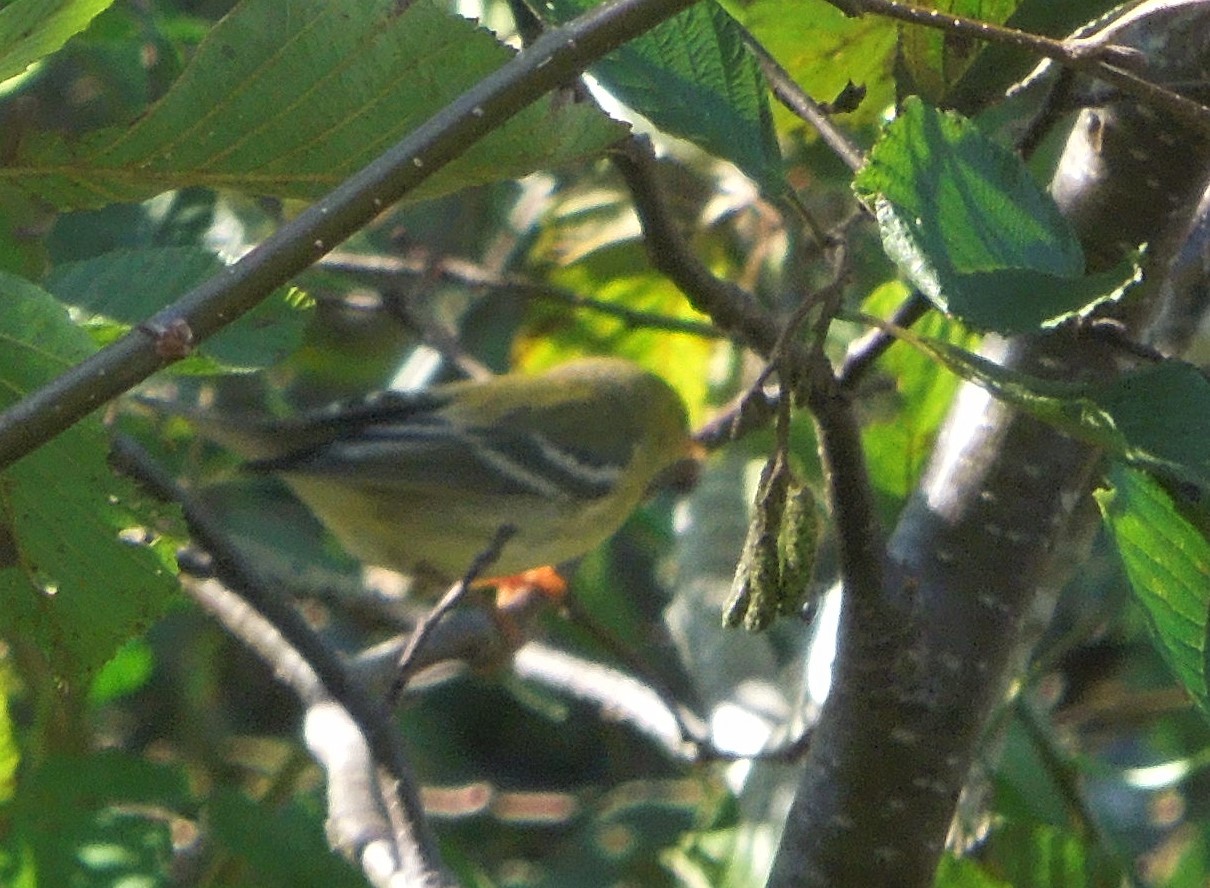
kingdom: Animalia
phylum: Chordata
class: Aves
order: Passeriformes
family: Parulidae
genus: Setophaga
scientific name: Setophaga striata
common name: Blackpoll warbler
